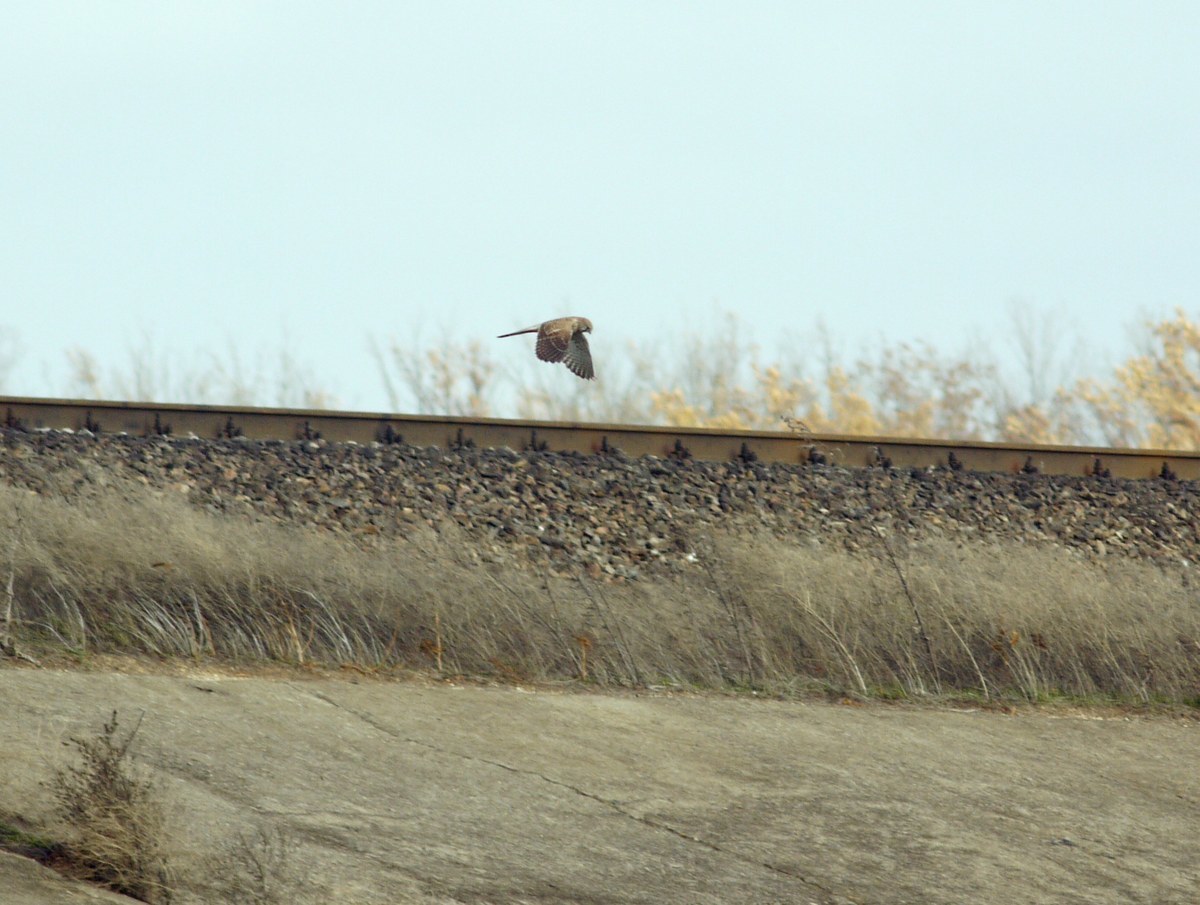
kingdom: Animalia
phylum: Chordata
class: Aves
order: Falconiformes
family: Falconidae
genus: Falco
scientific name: Falco tinnunculus
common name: Common kestrel
